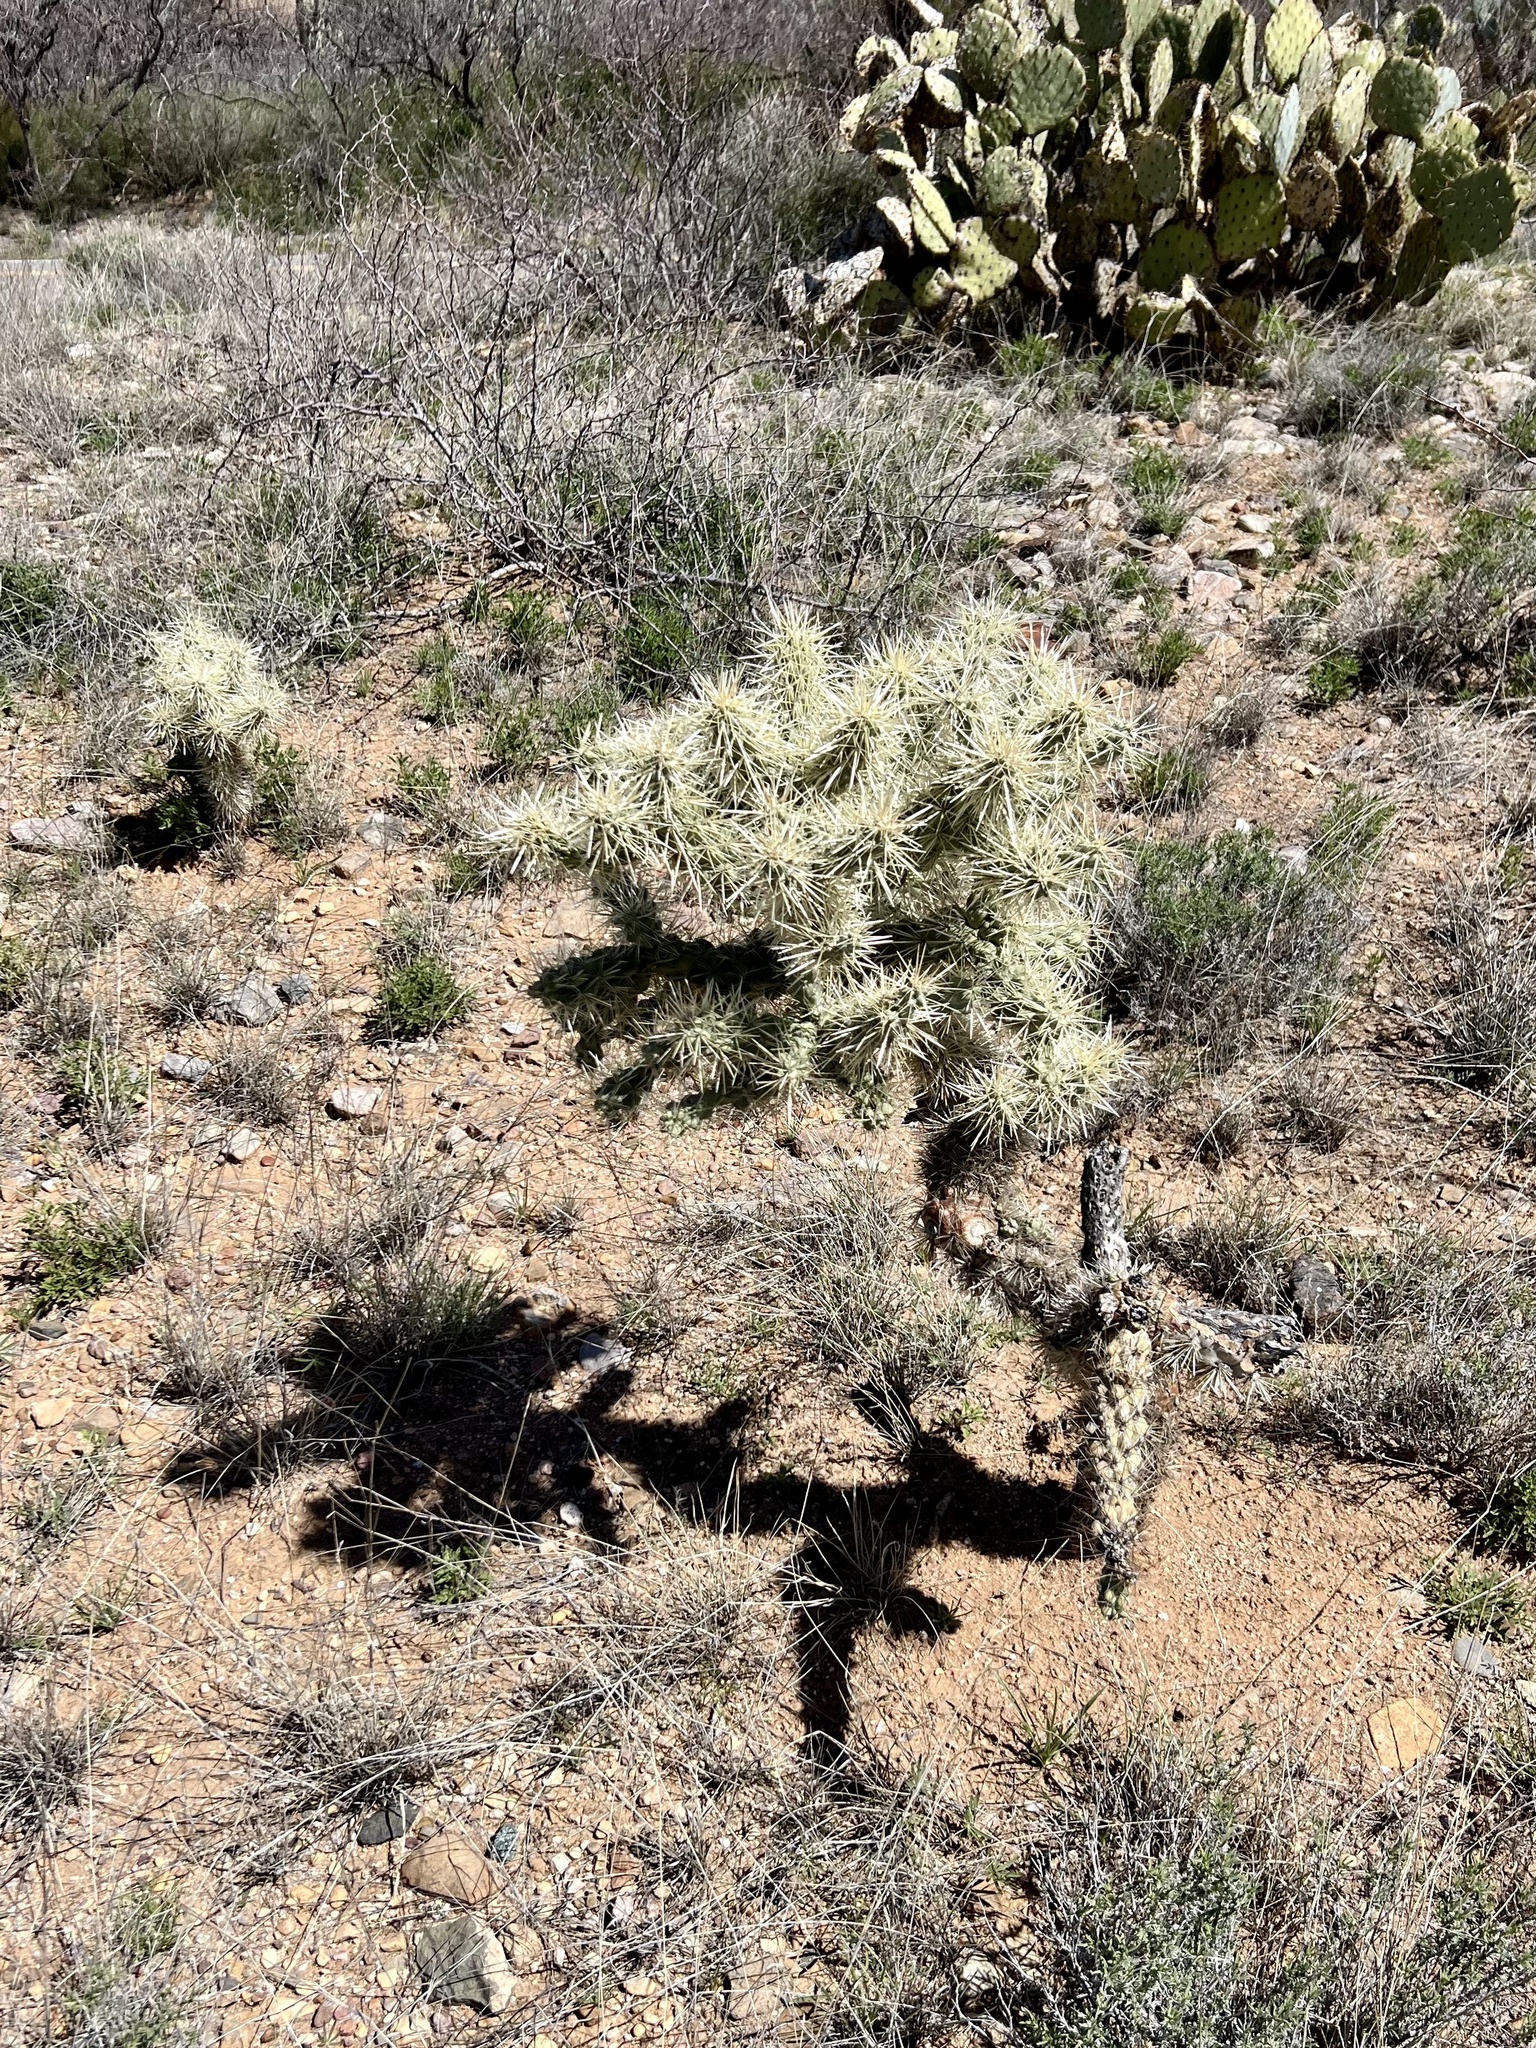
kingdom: Plantae
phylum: Tracheophyta
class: Magnoliopsida
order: Caryophyllales
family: Cactaceae
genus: Cylindropuntia
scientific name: Cylindropuntia fulgida
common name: Jumping cholla
